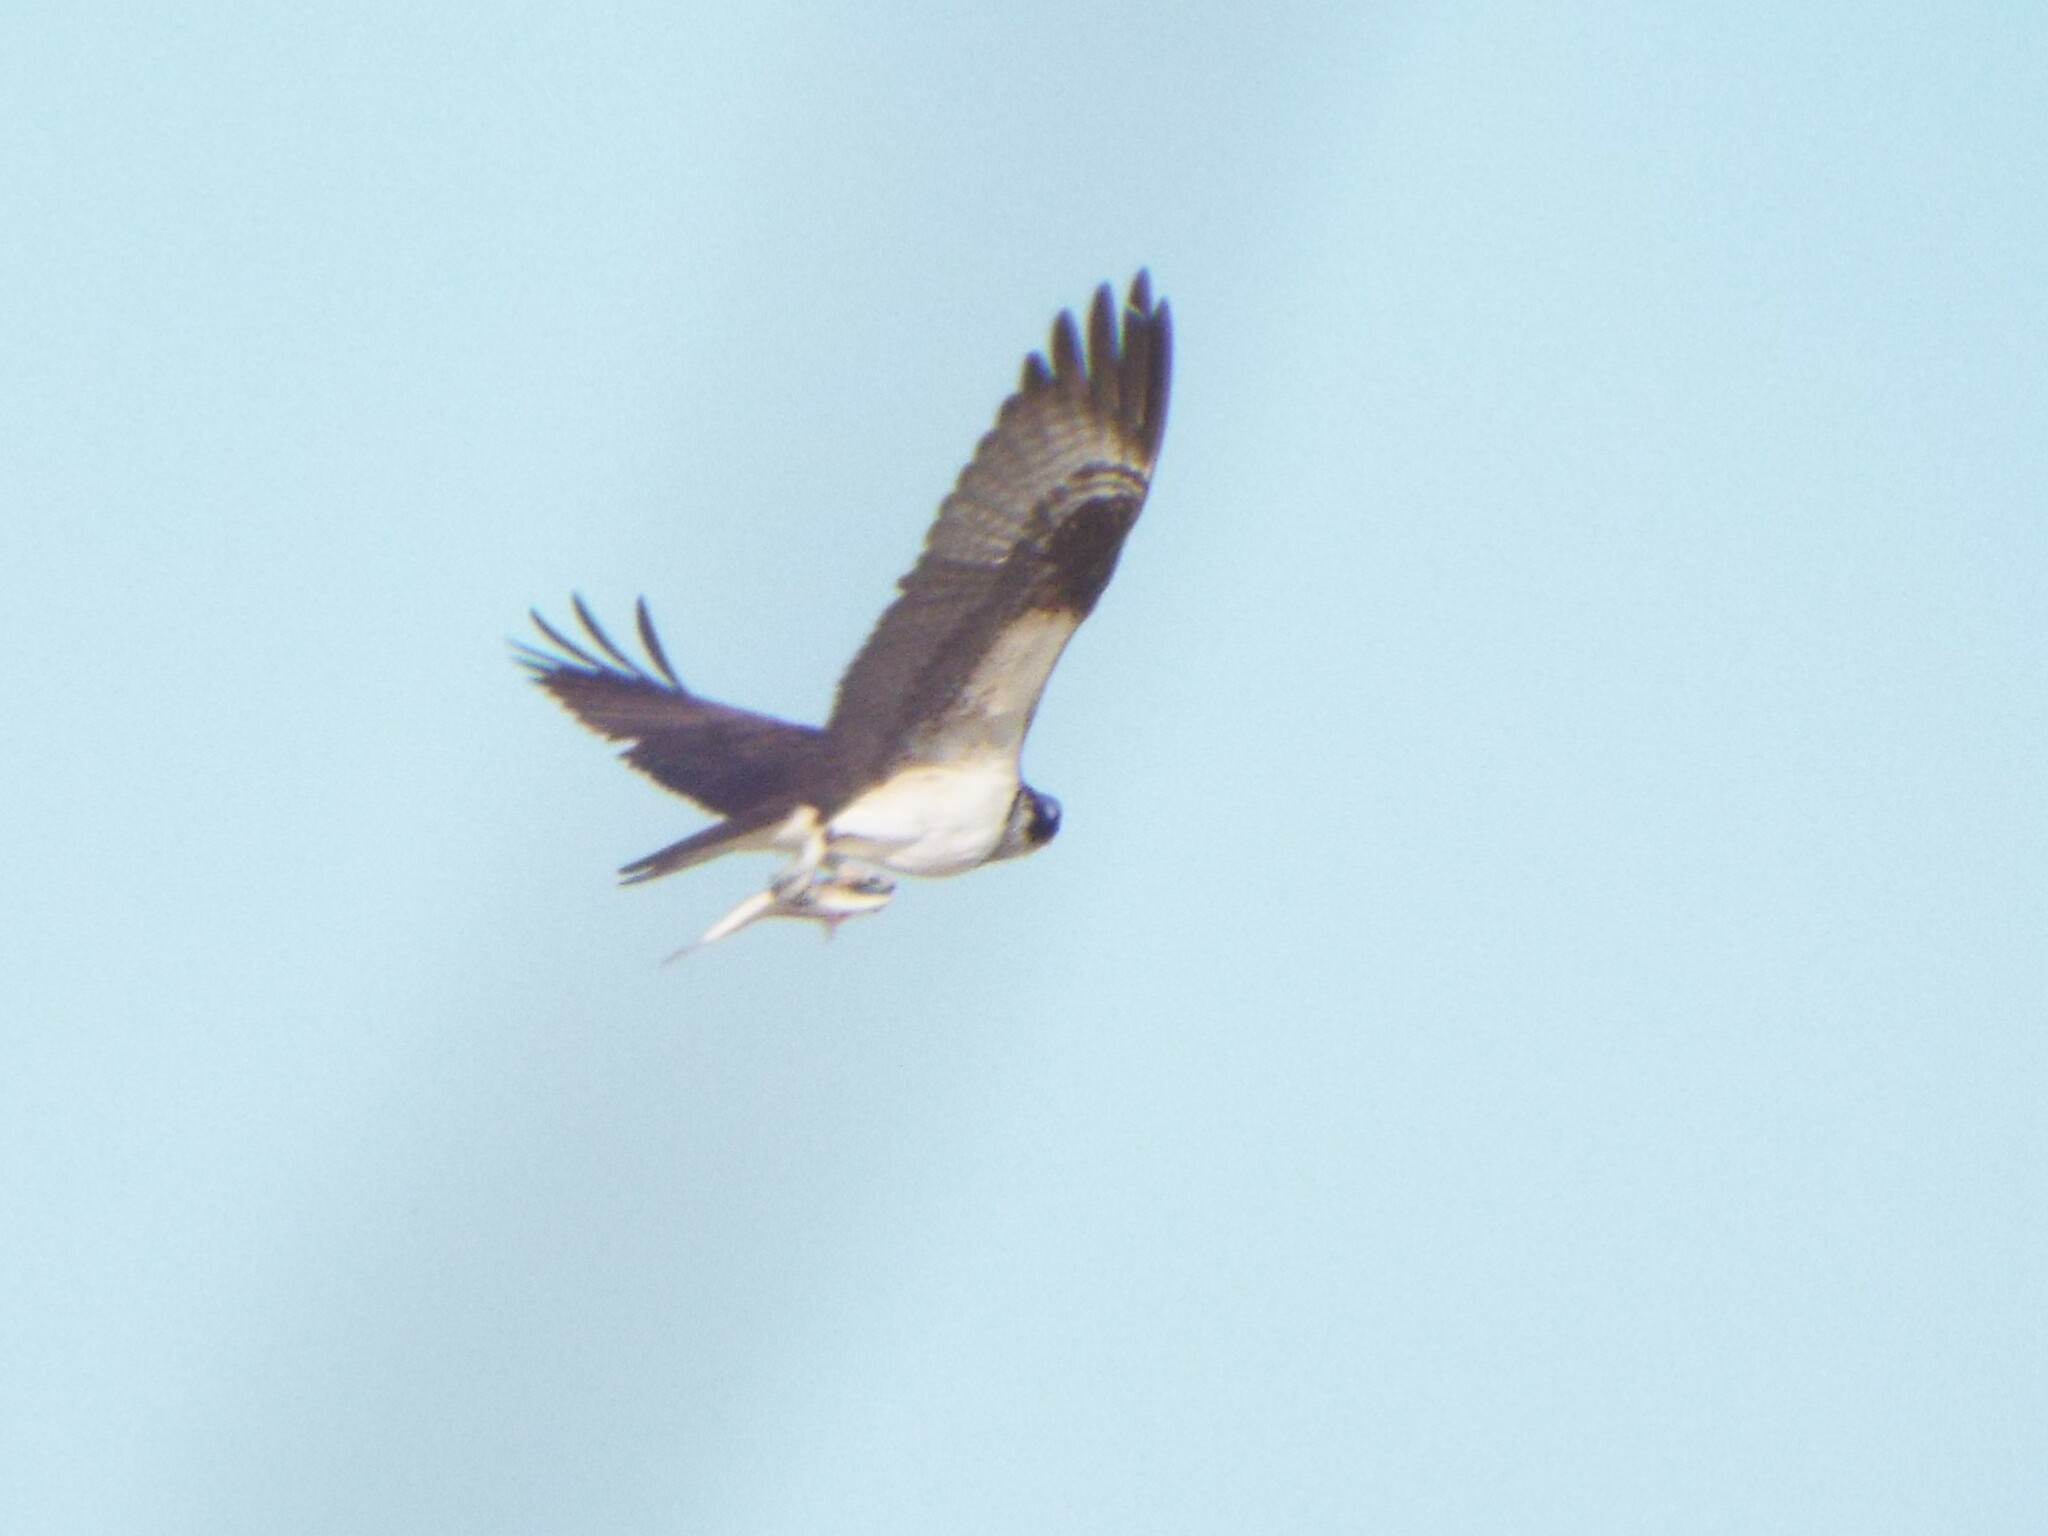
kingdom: Animalia
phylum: Chordata
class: Aves
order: Accipitriformes
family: Pandionidae
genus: Pandion
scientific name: Pandion haliaetus
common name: Osprey
